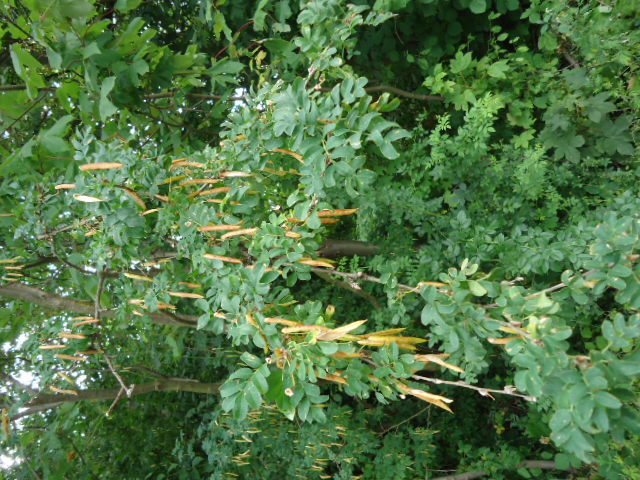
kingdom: Plantae
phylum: Tracheophyta
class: Magnoliopsida
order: Fabales
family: Fabaceae
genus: Caragana
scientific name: Caragana arborescens
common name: Siberian peashrub
